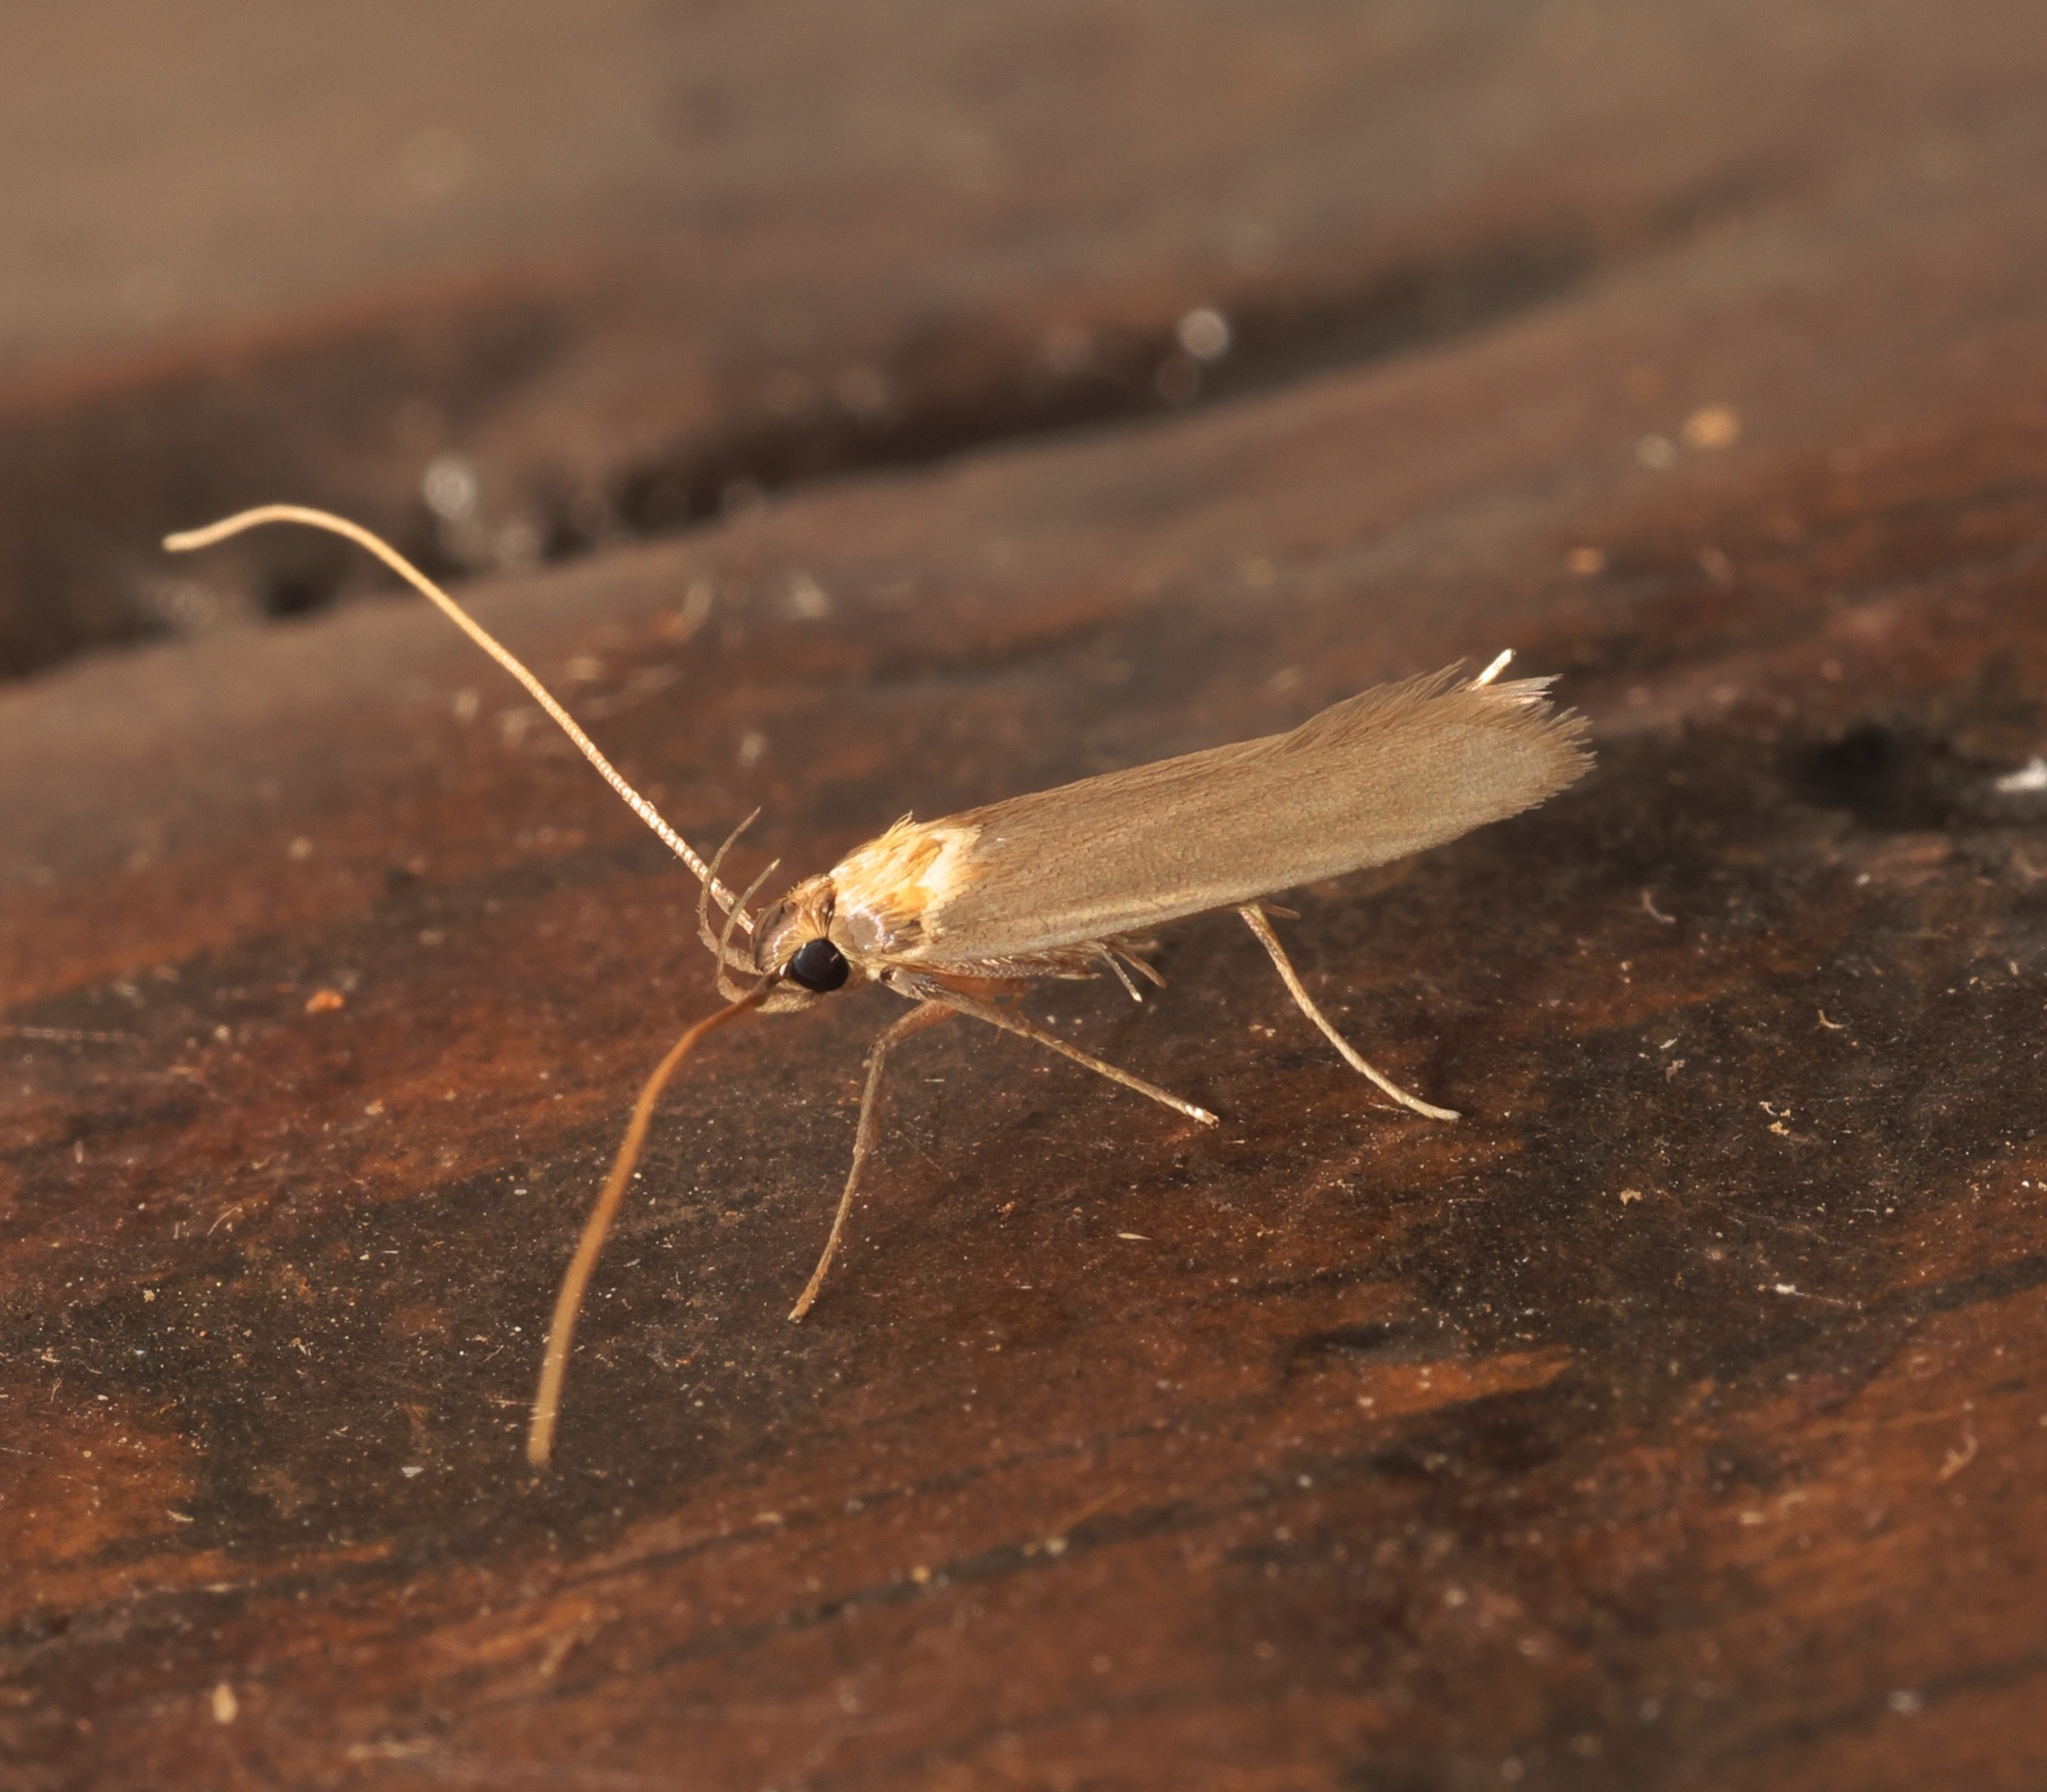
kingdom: Animalia
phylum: Arthropoda
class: Insecta
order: Lepidoptera
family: Lecithoceridae
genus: Tegenocharis
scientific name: Tegenocharis tenebrans
